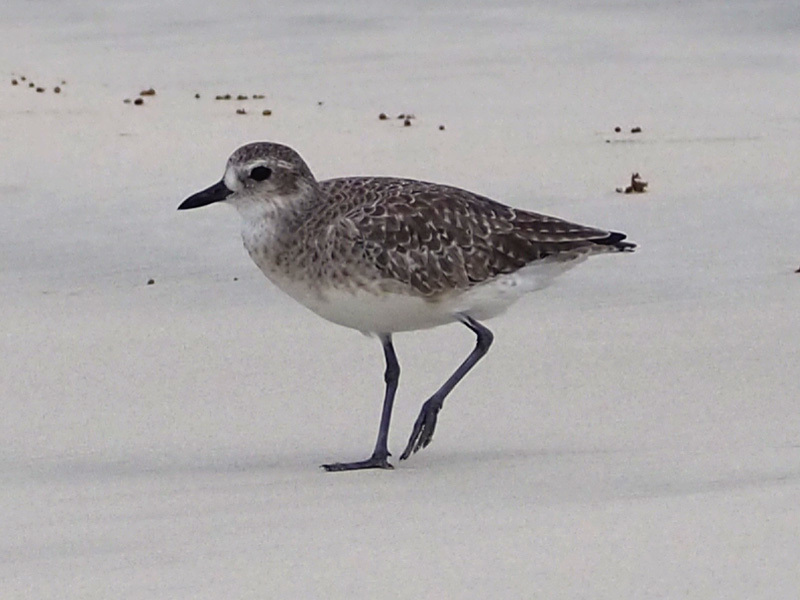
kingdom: Animalia
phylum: Chordata
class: Aves
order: Charadriiformes
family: Charadriidae
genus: Pluvialis
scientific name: Pluvialis squatarola
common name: Grey plover
